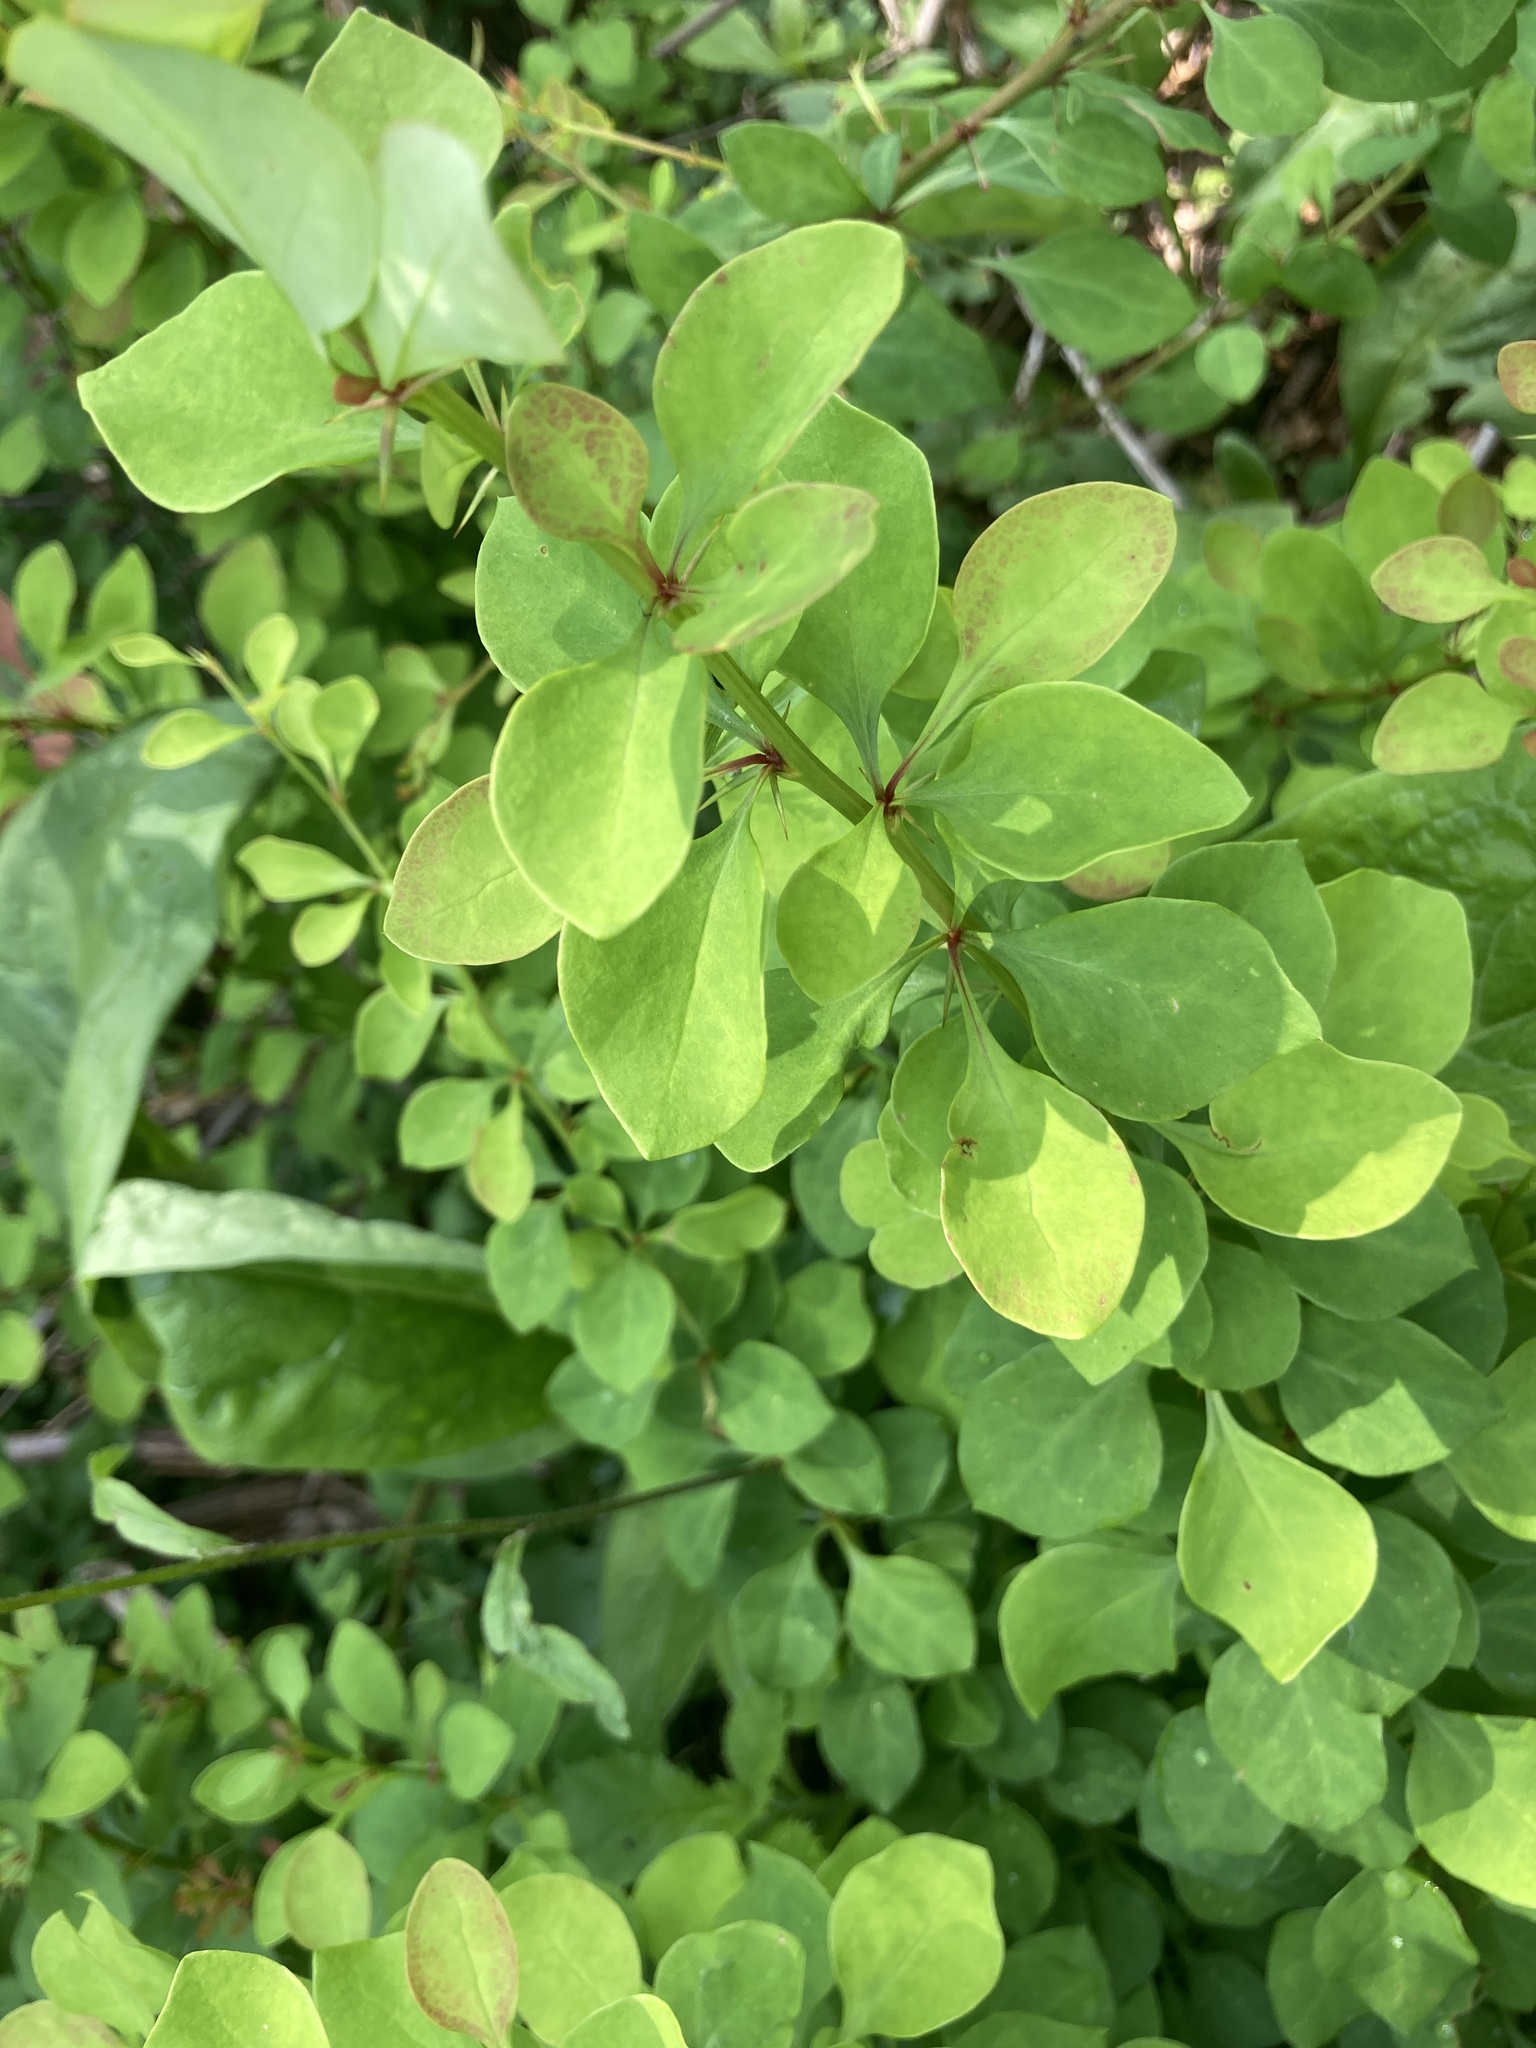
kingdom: Plantae
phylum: Tracheophyta
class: Magnoliopsida
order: Ranunculales
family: Berberidaceae
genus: Berberis
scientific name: Berberis thunbergii
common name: Japanese barberry
